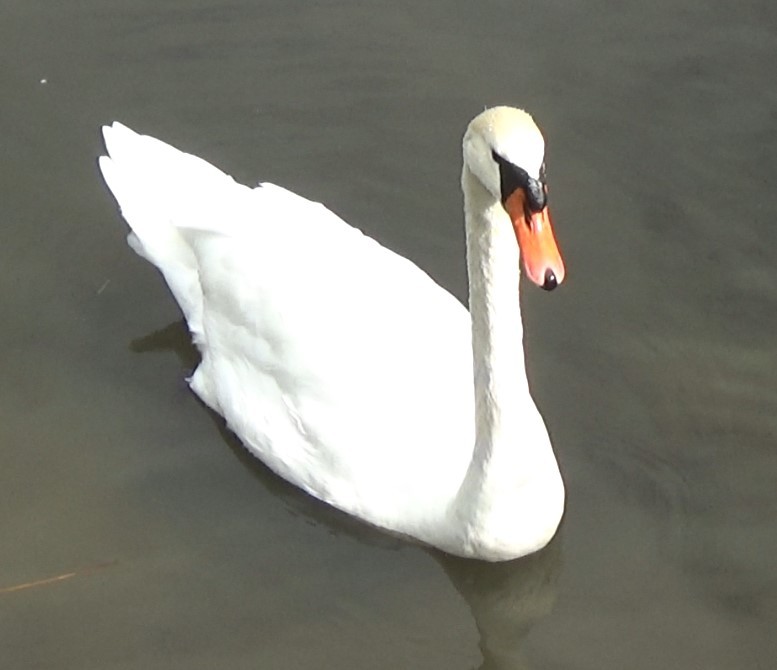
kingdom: Animalia
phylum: Chordata
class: Aves
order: Anseriformes
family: Anatidae
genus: Cygnus
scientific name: Cygnus olor
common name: Mute swan
